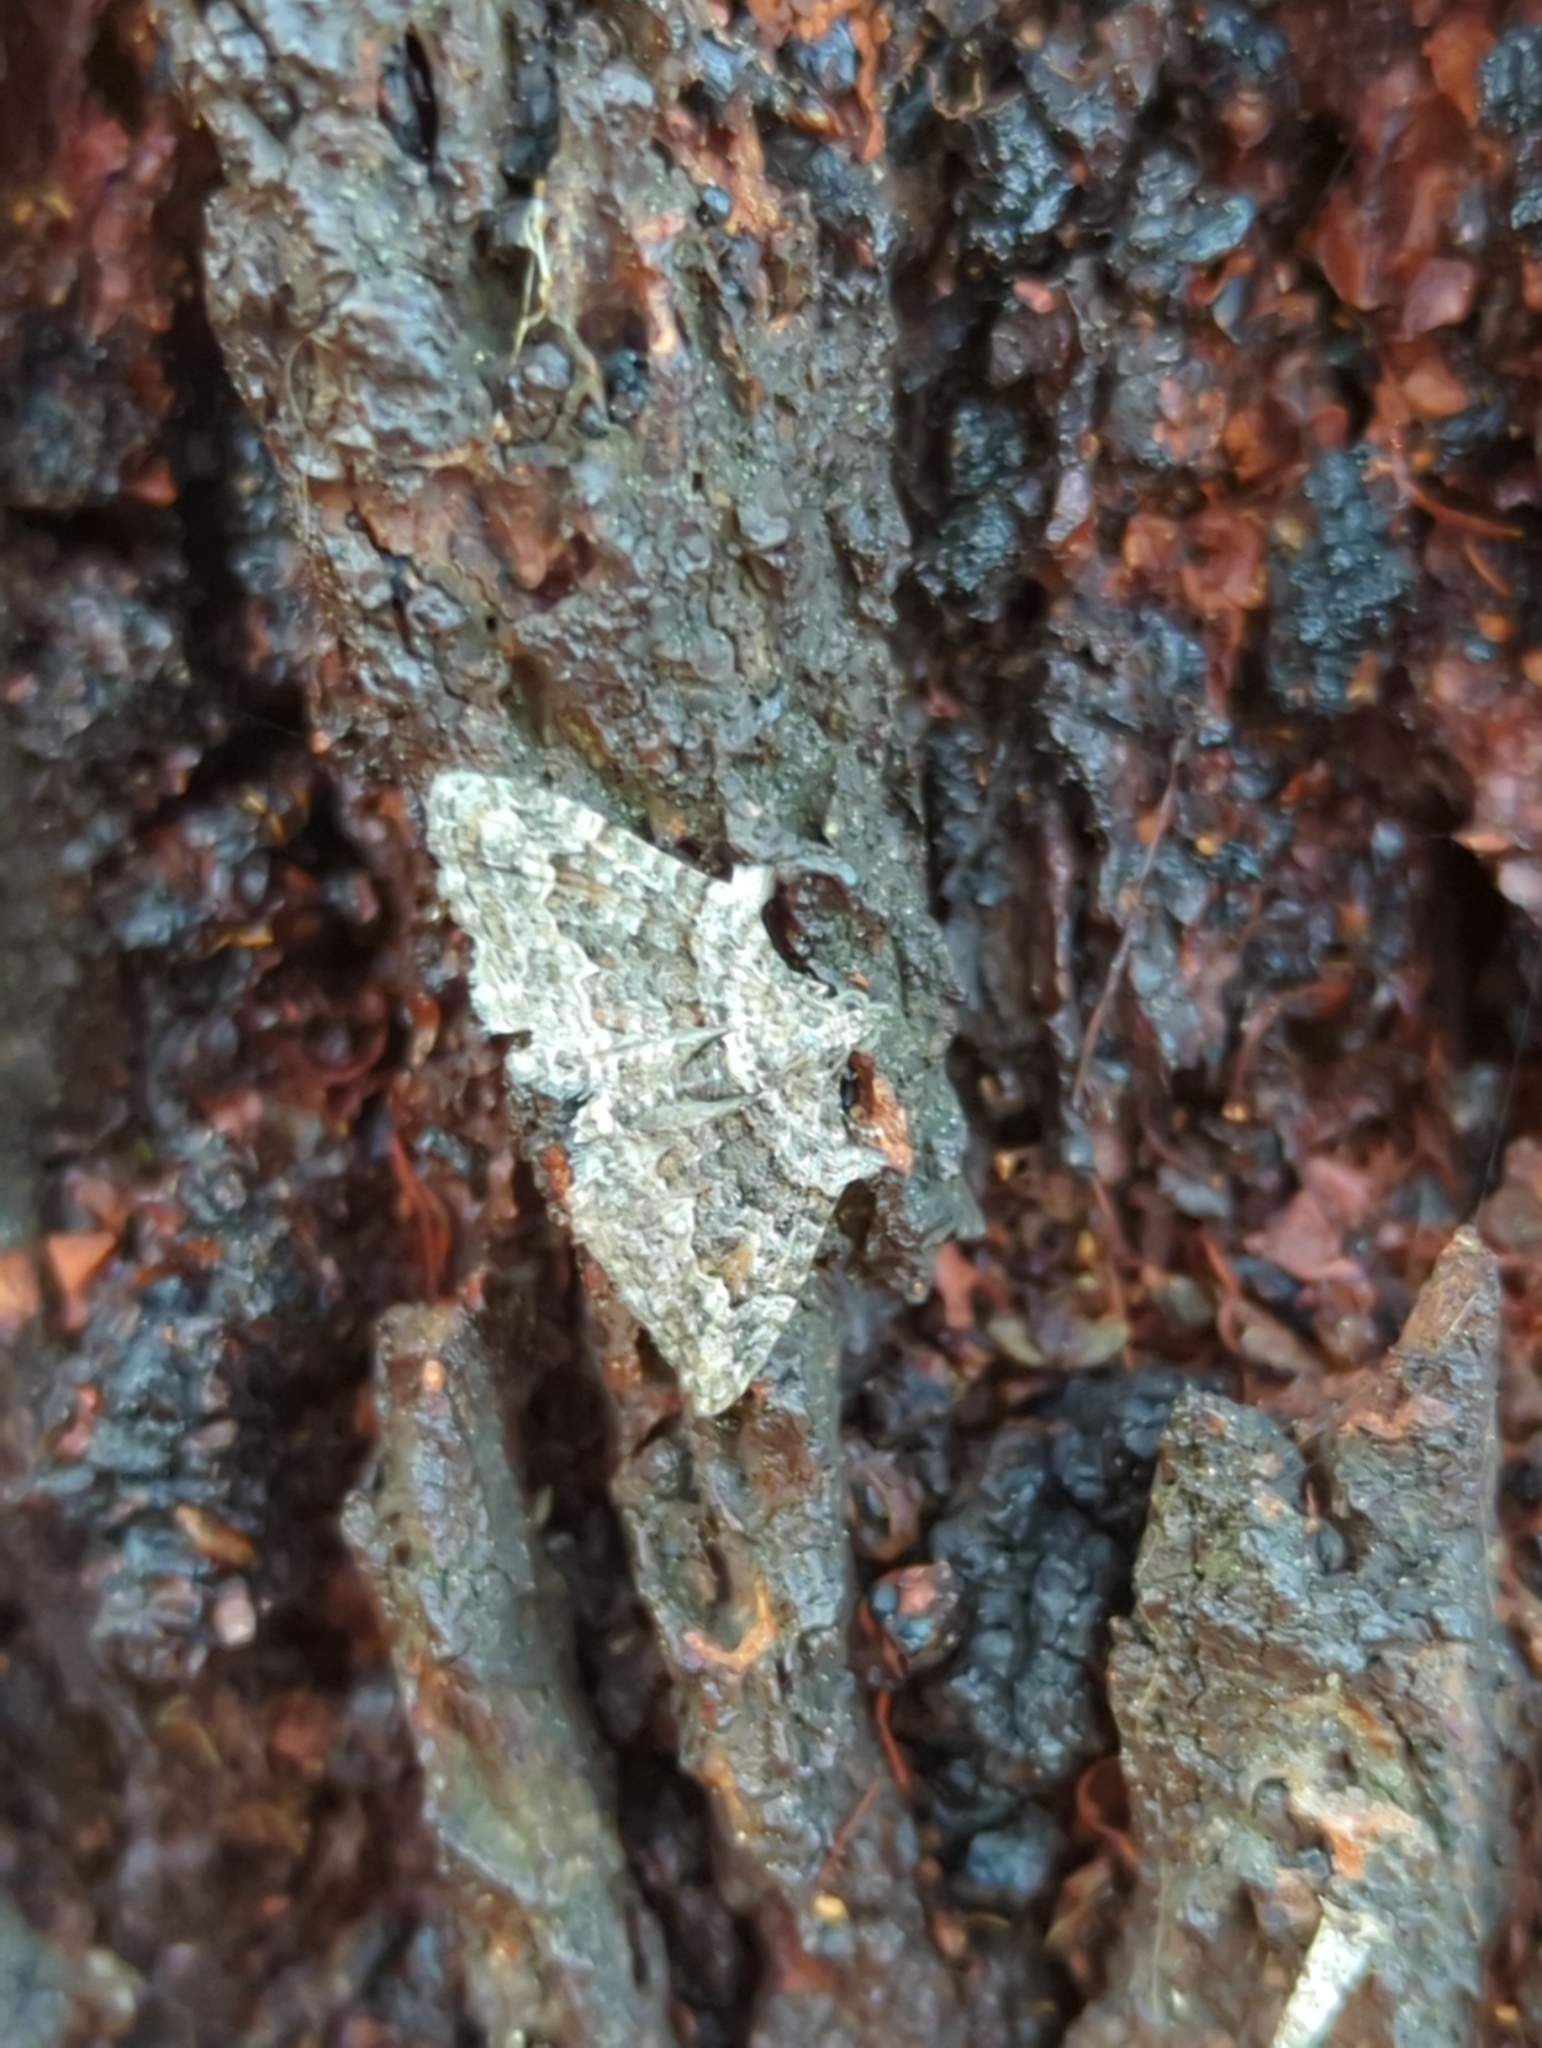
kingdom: Animalia
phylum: Arthropoda
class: Insecta
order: Lepidoptera
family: Geometridae
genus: Phrissogonus
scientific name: Phrissogonus laticostata
